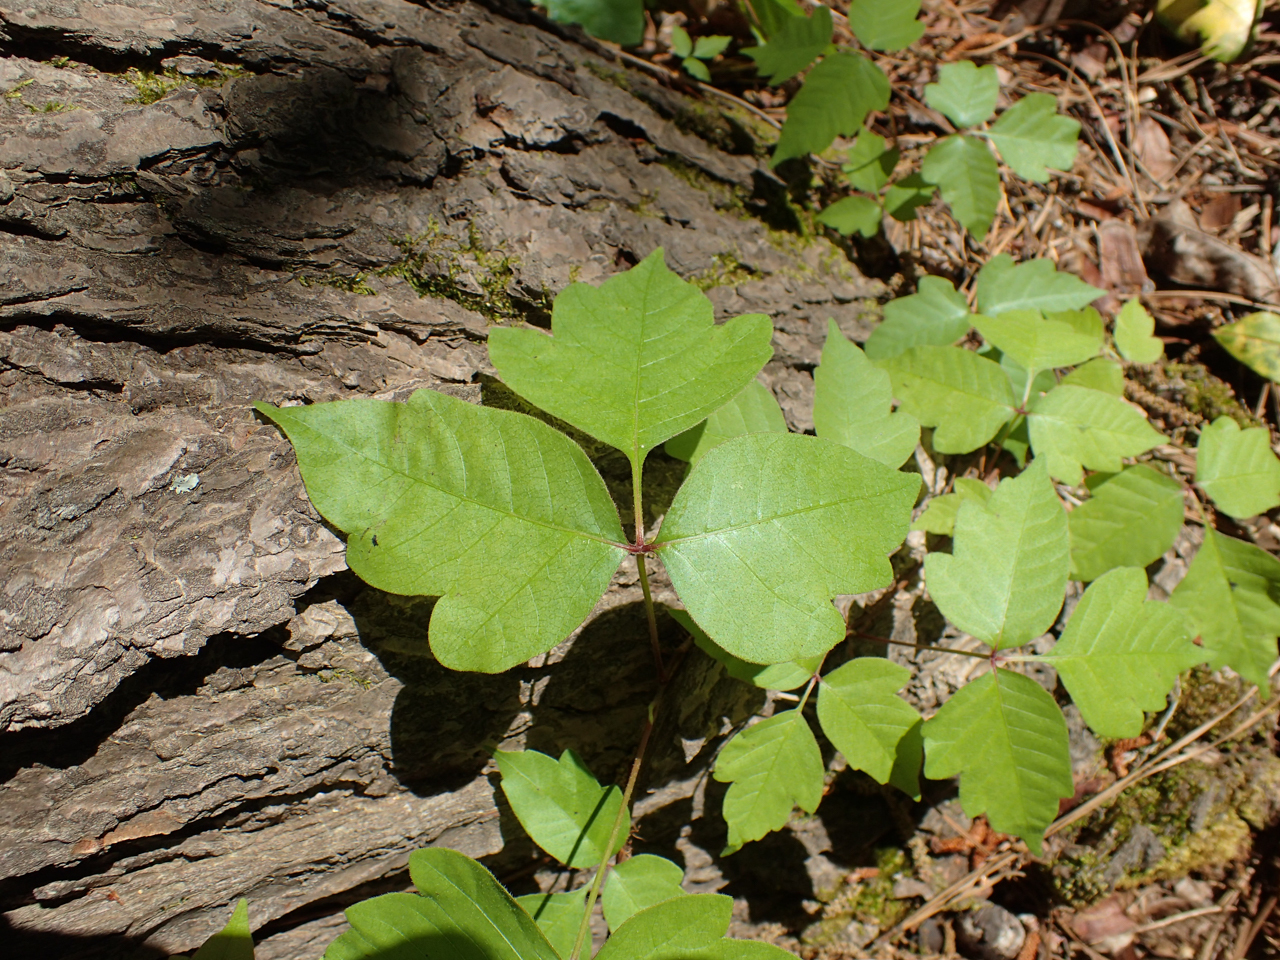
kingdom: Plantae
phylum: Tracheophyta
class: Magnoliopsida
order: Sapindales
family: Anacardiaceae
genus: Toxicodendron
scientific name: Toxicodendron radicans
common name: Poison ivy
